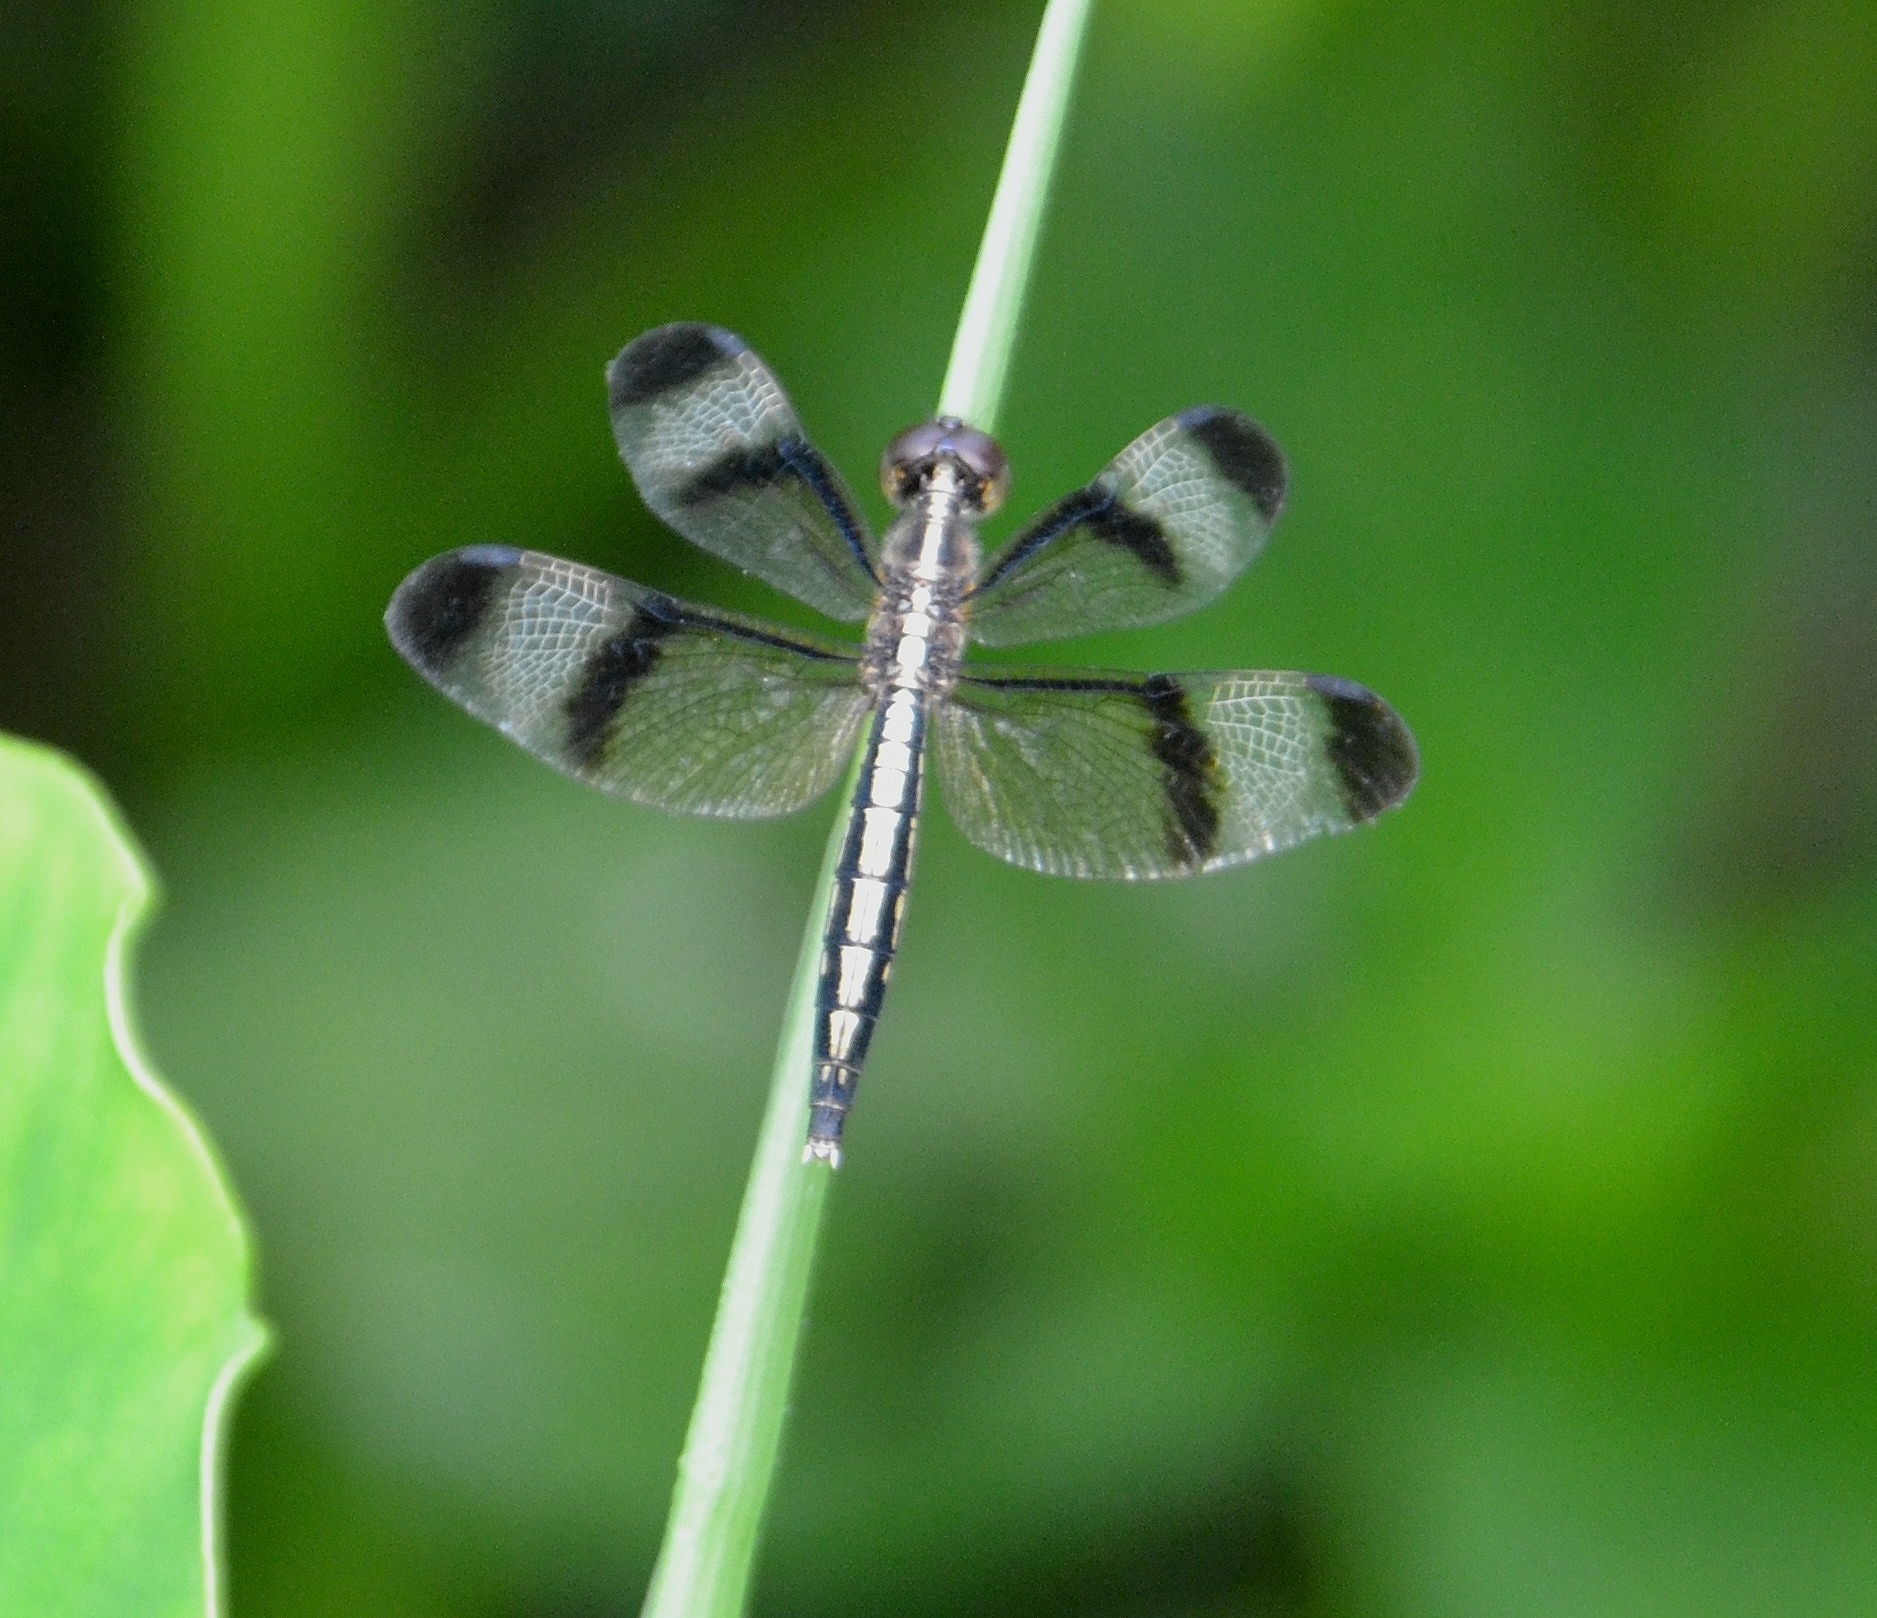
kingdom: Animalia
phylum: Arthropoda
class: Insecta
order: Odonata
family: Libellulidae
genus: Neurothemis
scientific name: Neurothemis tullia
